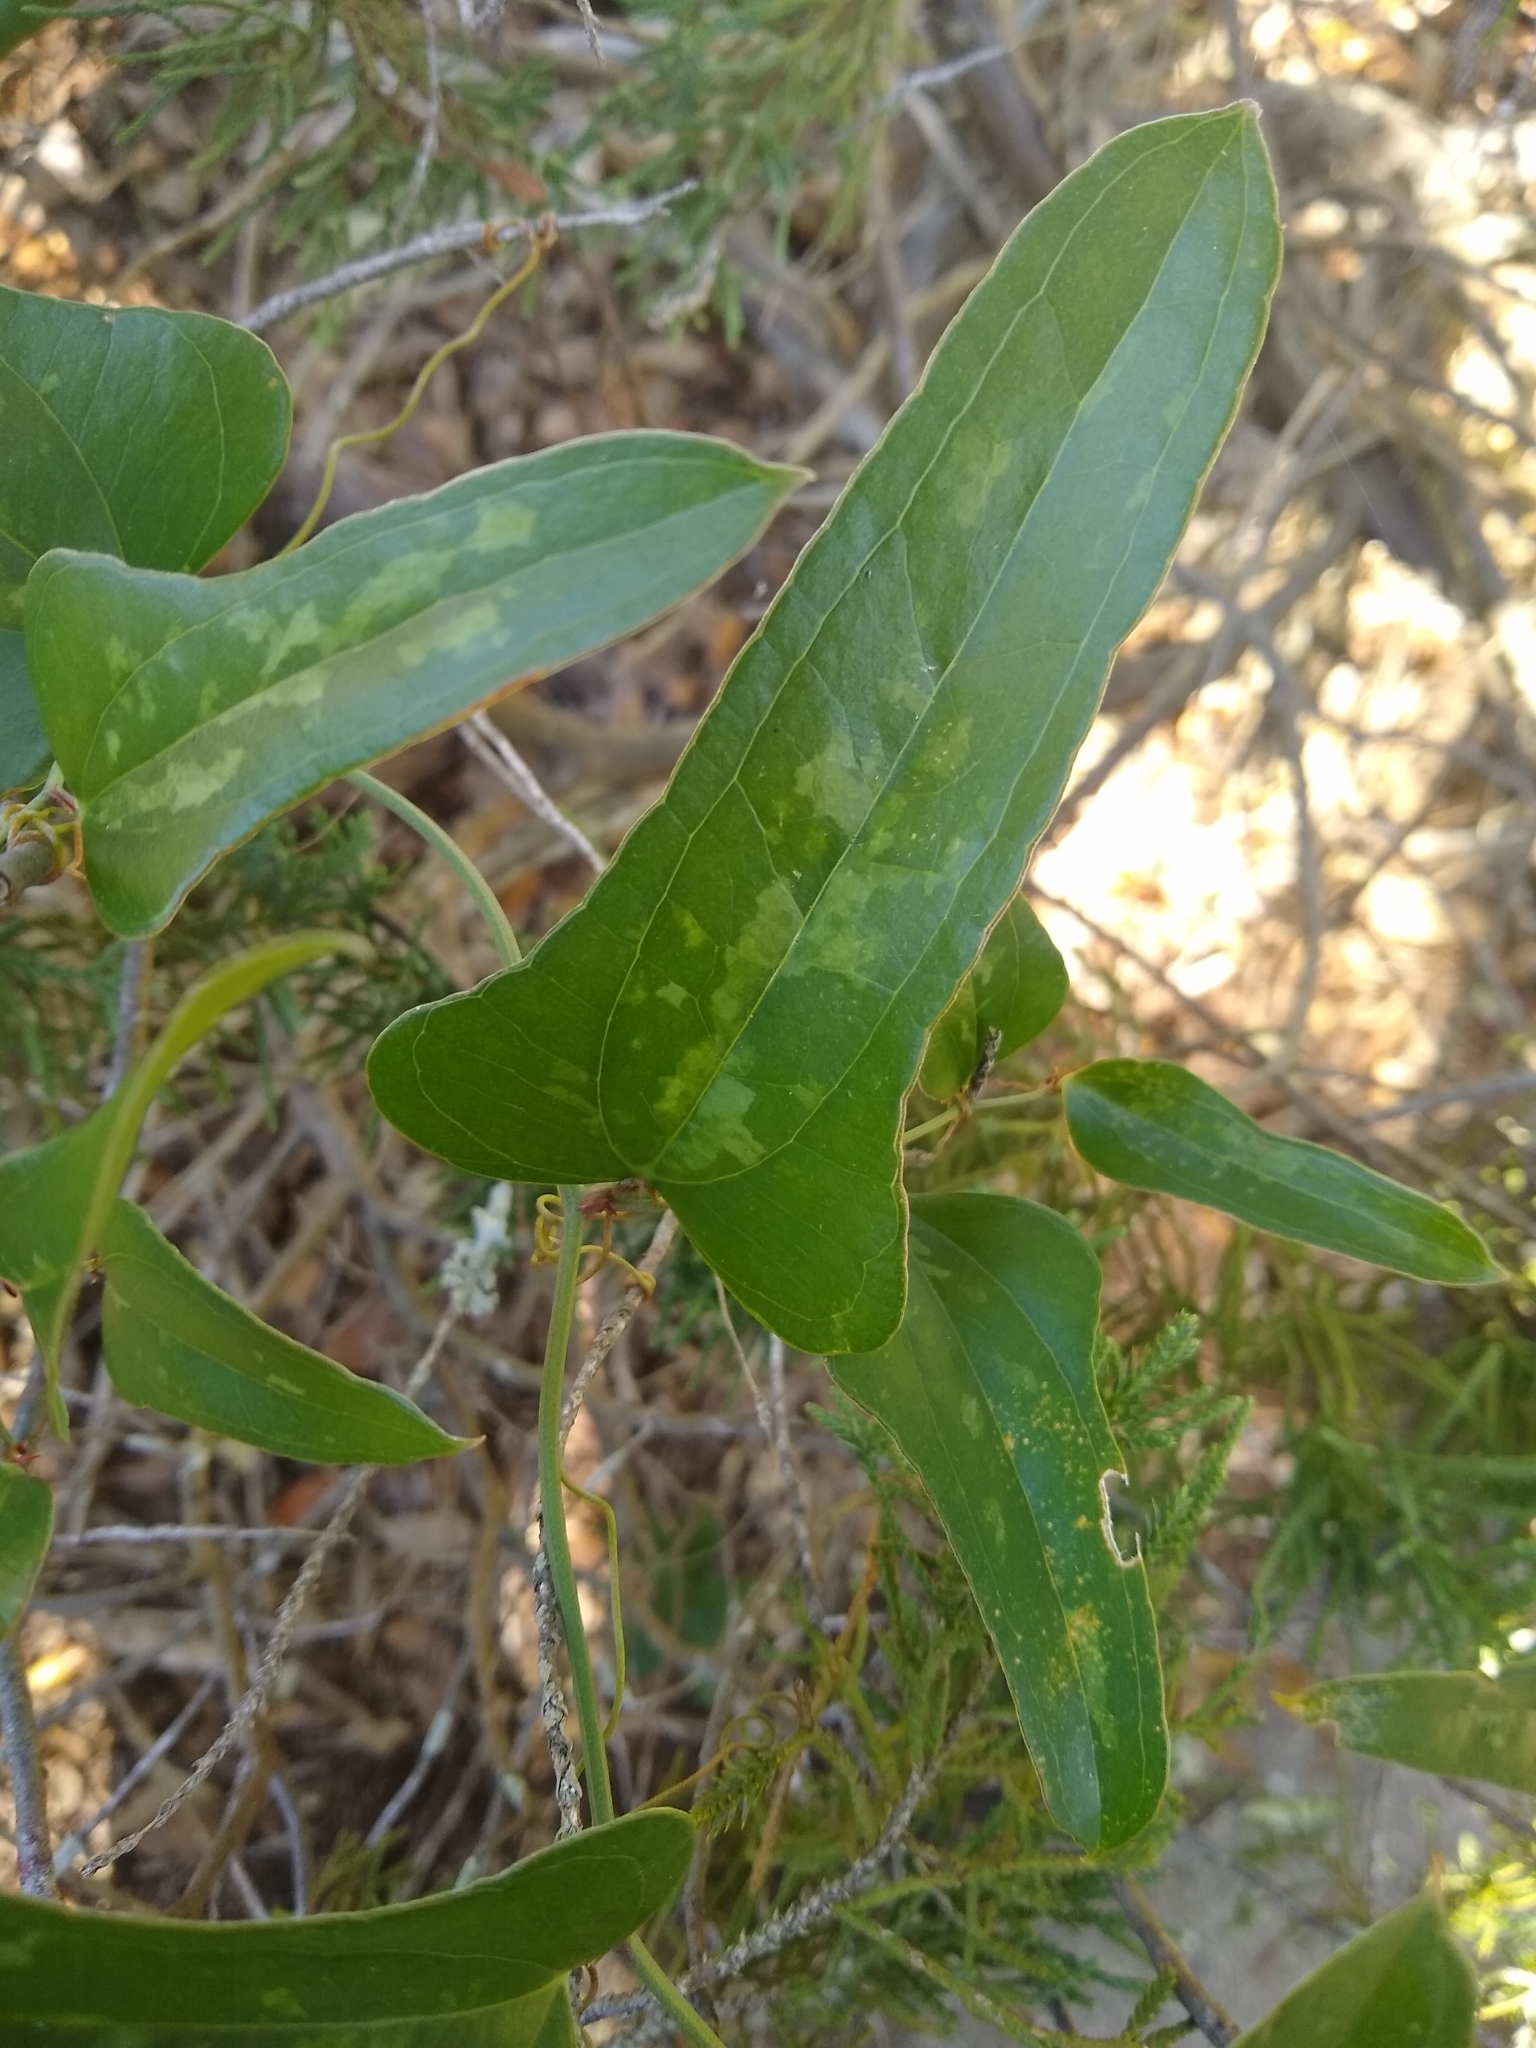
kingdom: Plantae
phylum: Tracheophyta
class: Liliopsida
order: Liliales
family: Smilacaceae
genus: Smilax
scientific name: Smilax bona-nox
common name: Catbrier
